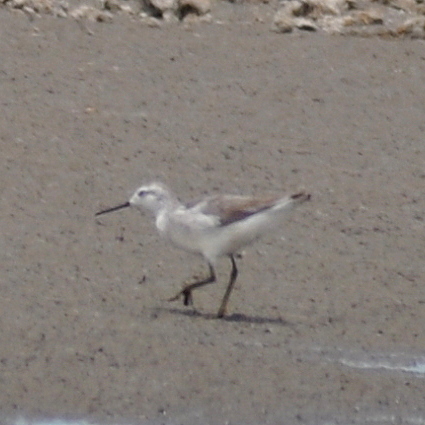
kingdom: Animalia
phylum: Chordata
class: Aves
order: Charadriiformes
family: Scolopacidae
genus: Phalaropus
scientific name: Phalaropus tricolor
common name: Wilson's phalarope
